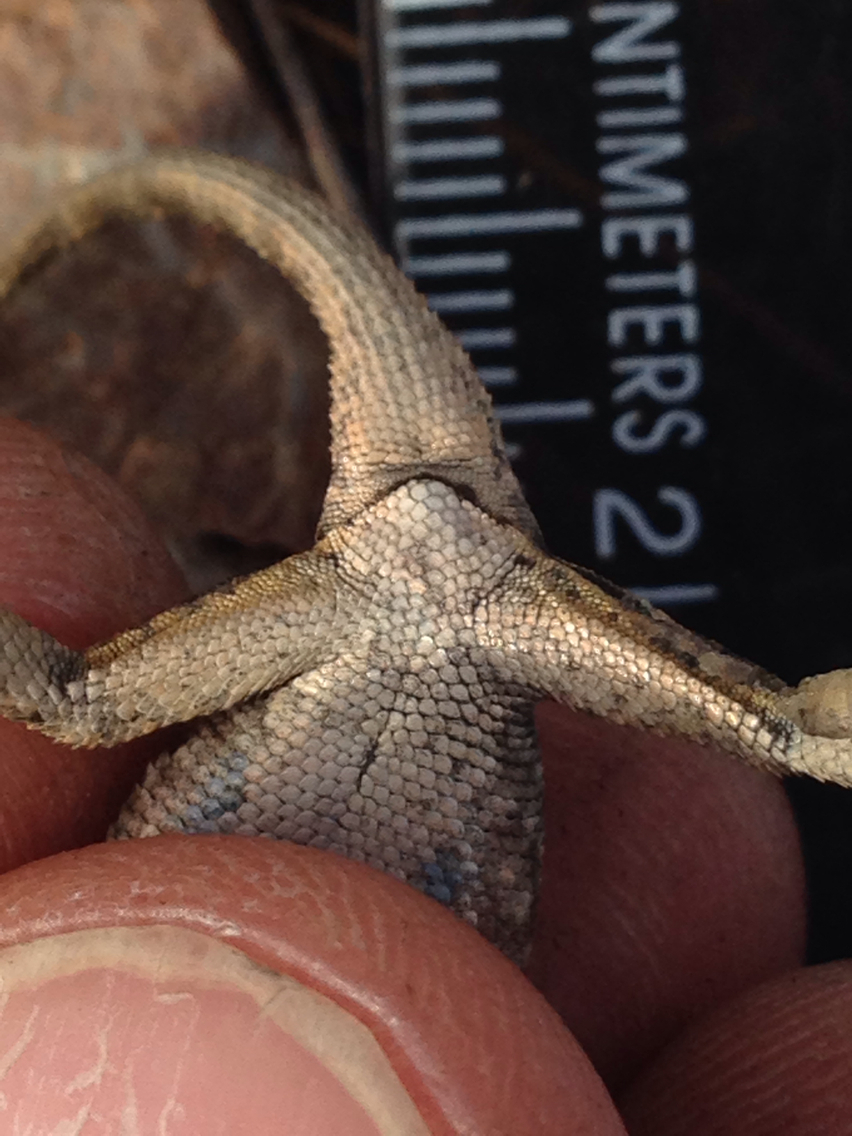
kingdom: Animalia
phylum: Chordata
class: Squamata
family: Phrynosomatidae
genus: Sceloporus
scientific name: Sceloporus occidentalis
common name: Western fence lizard
